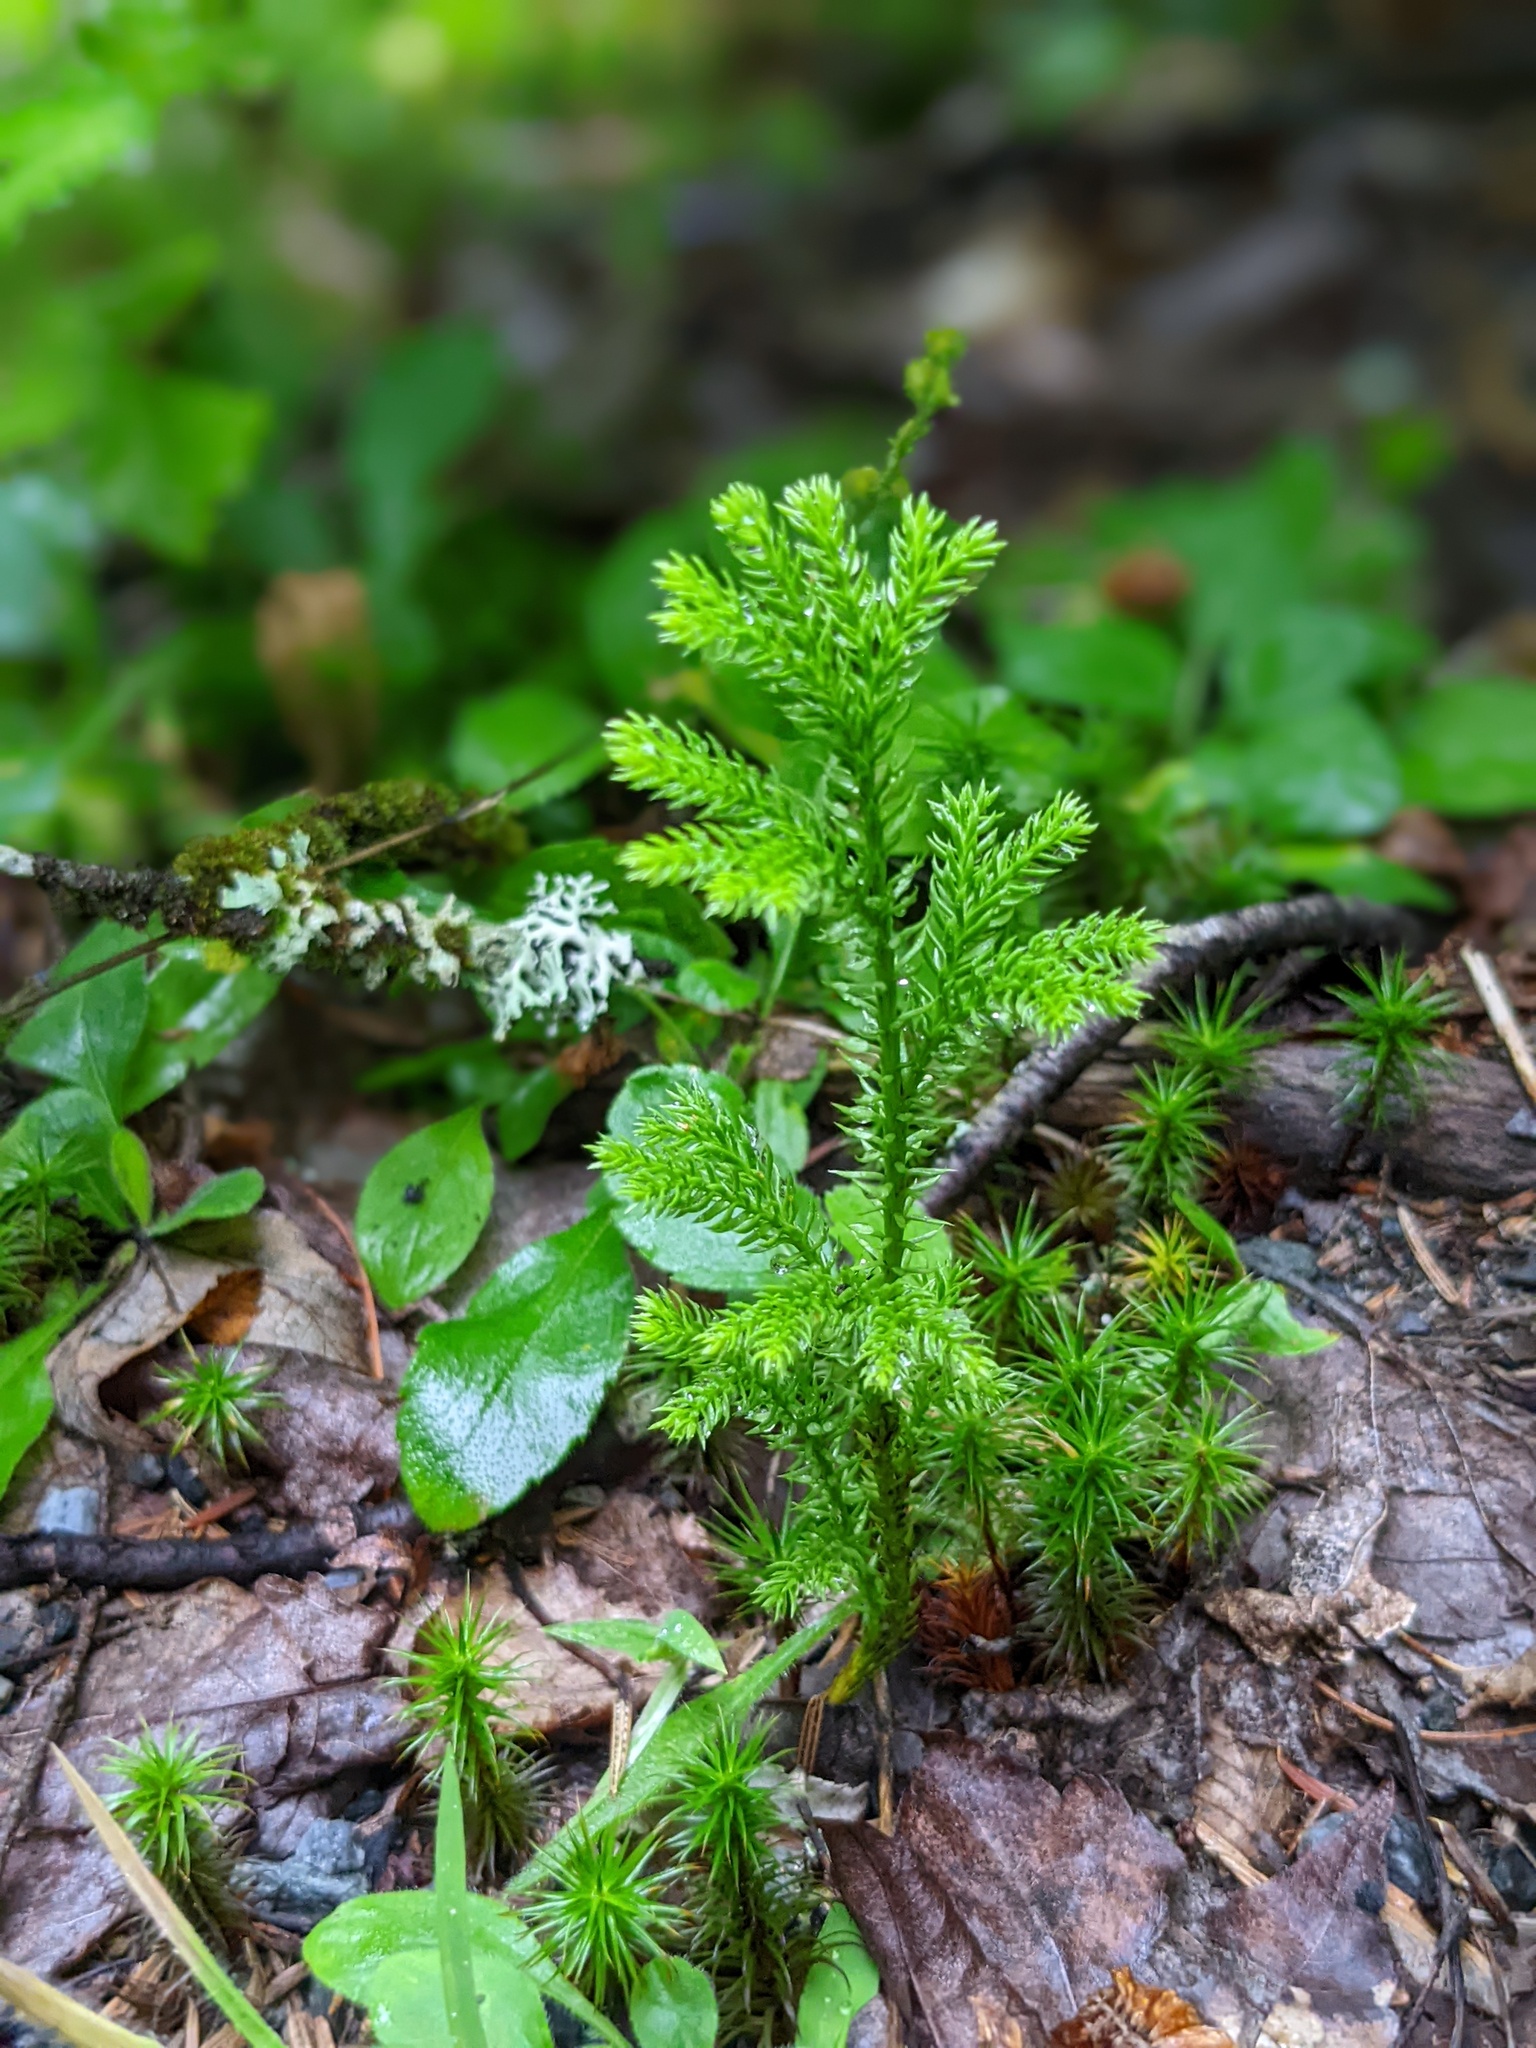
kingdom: Plantae
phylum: Tracheophyta
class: Lycopodiopsida
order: Lycopodiales
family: Lycopodiaceae
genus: Dendrolycopodium
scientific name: Dendrolycopodium dendroideum
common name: Northern tree-clubmoss
